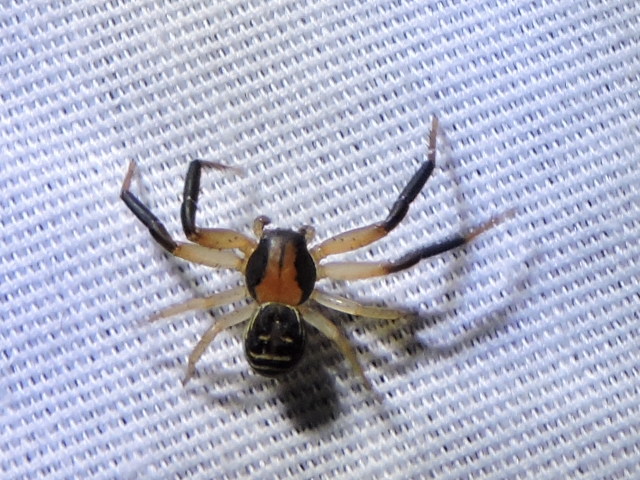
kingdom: Animalia
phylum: Arthropoda
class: Arachnida
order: Araneae
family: Thomisidae
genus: Xysticus
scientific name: Xysticus texanus
